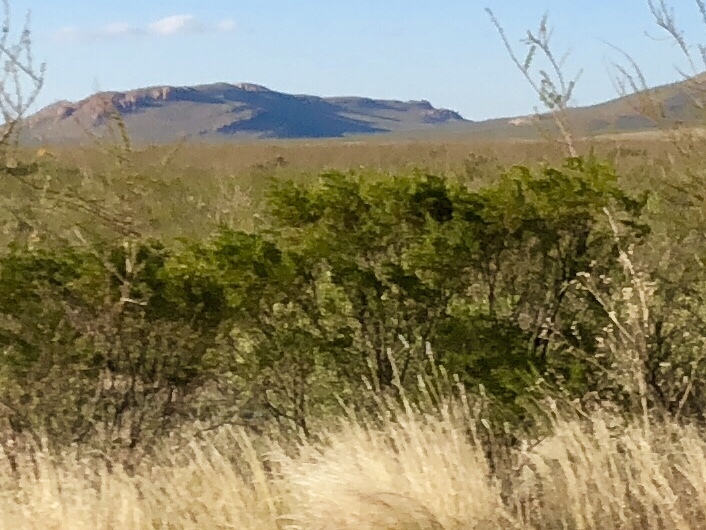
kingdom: Plantae
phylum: Tracheophyta
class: Magnoliopsida
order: Zygophyllales
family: Zygophyllaceae
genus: Larrea
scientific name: Larrea tridentata
